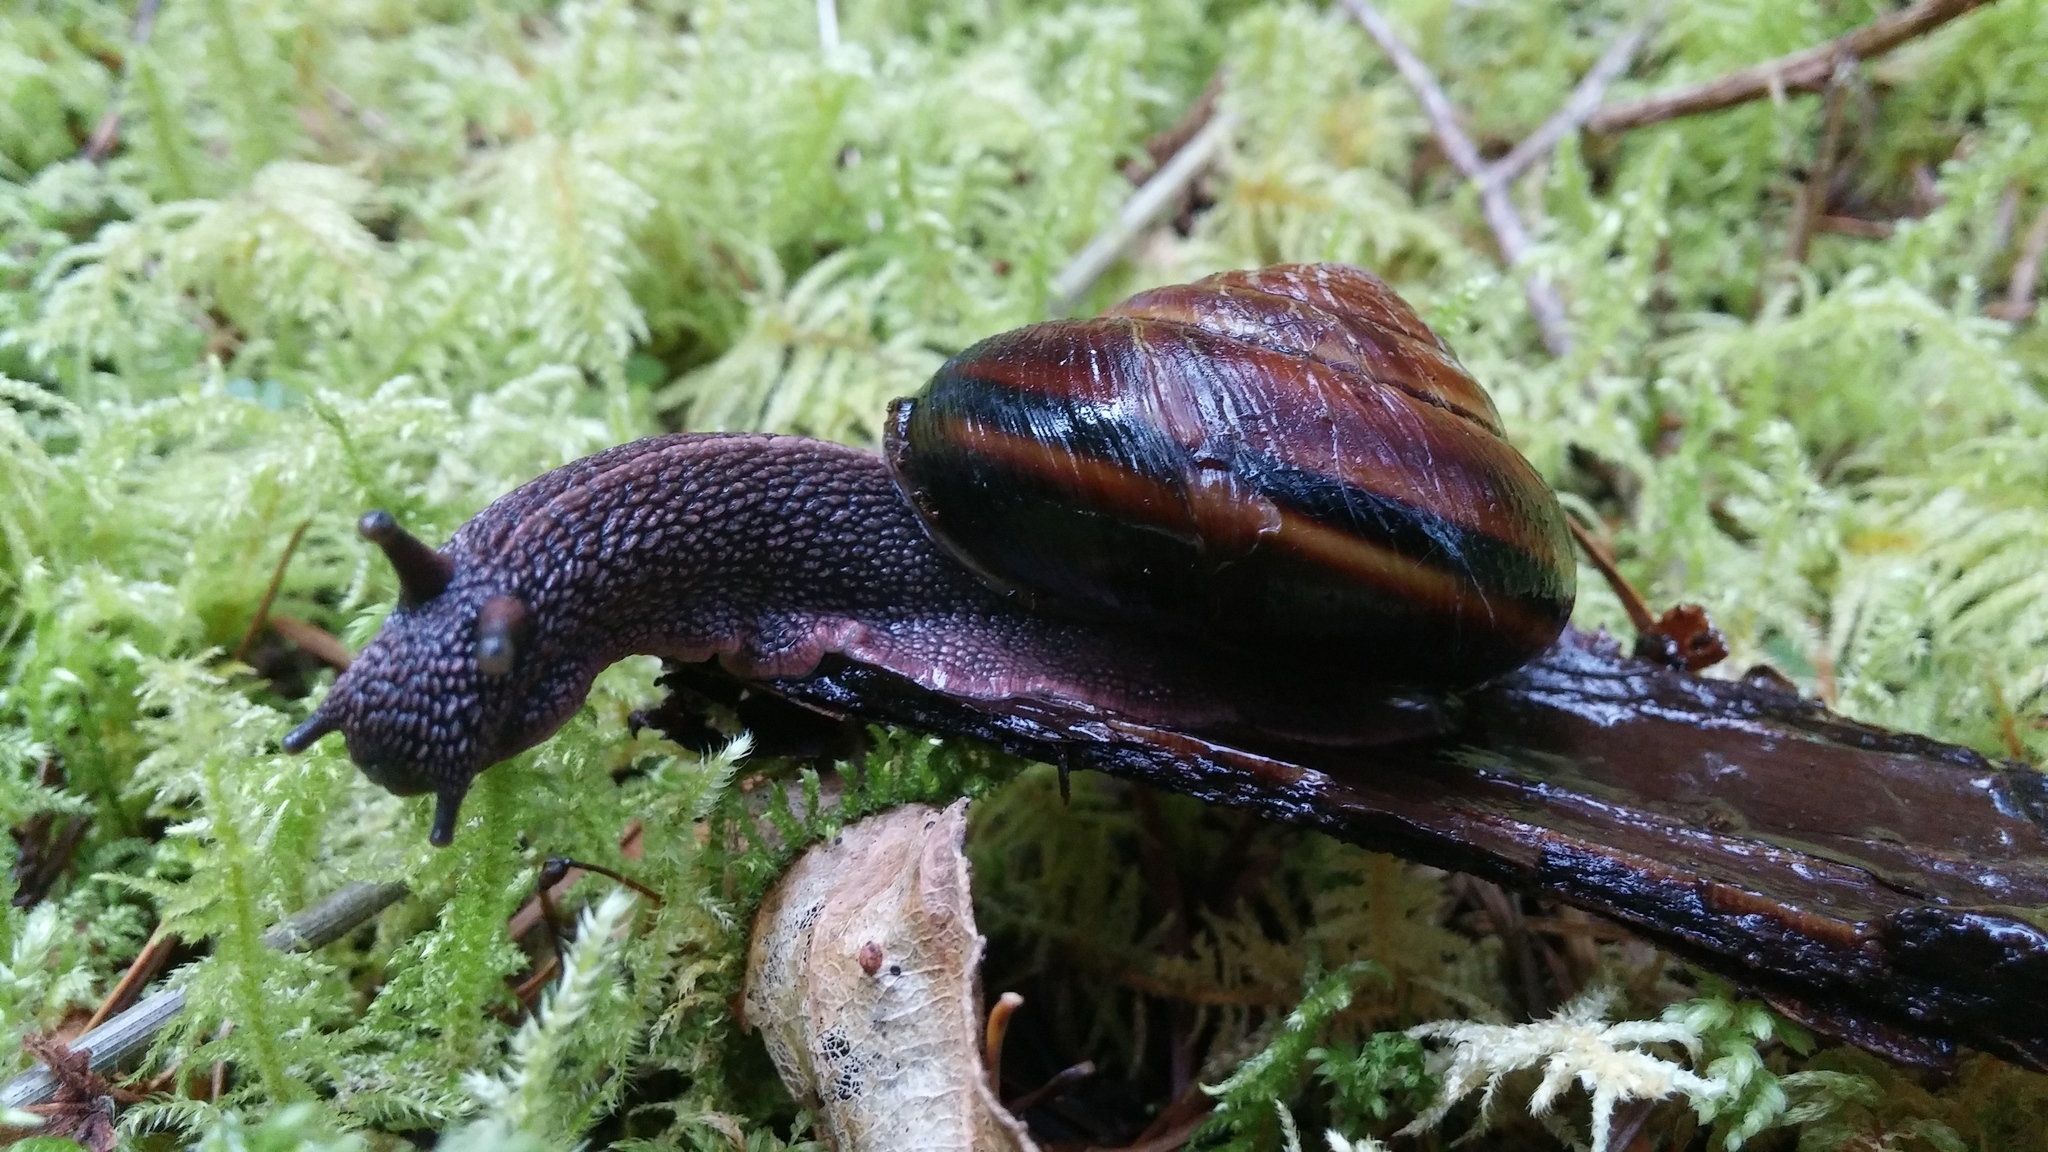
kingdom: Animalia
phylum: Mollusca
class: Gastropoda
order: Stylommatophora
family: Xanthonychidae
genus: Monadenia
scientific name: Monadenia fidelis
